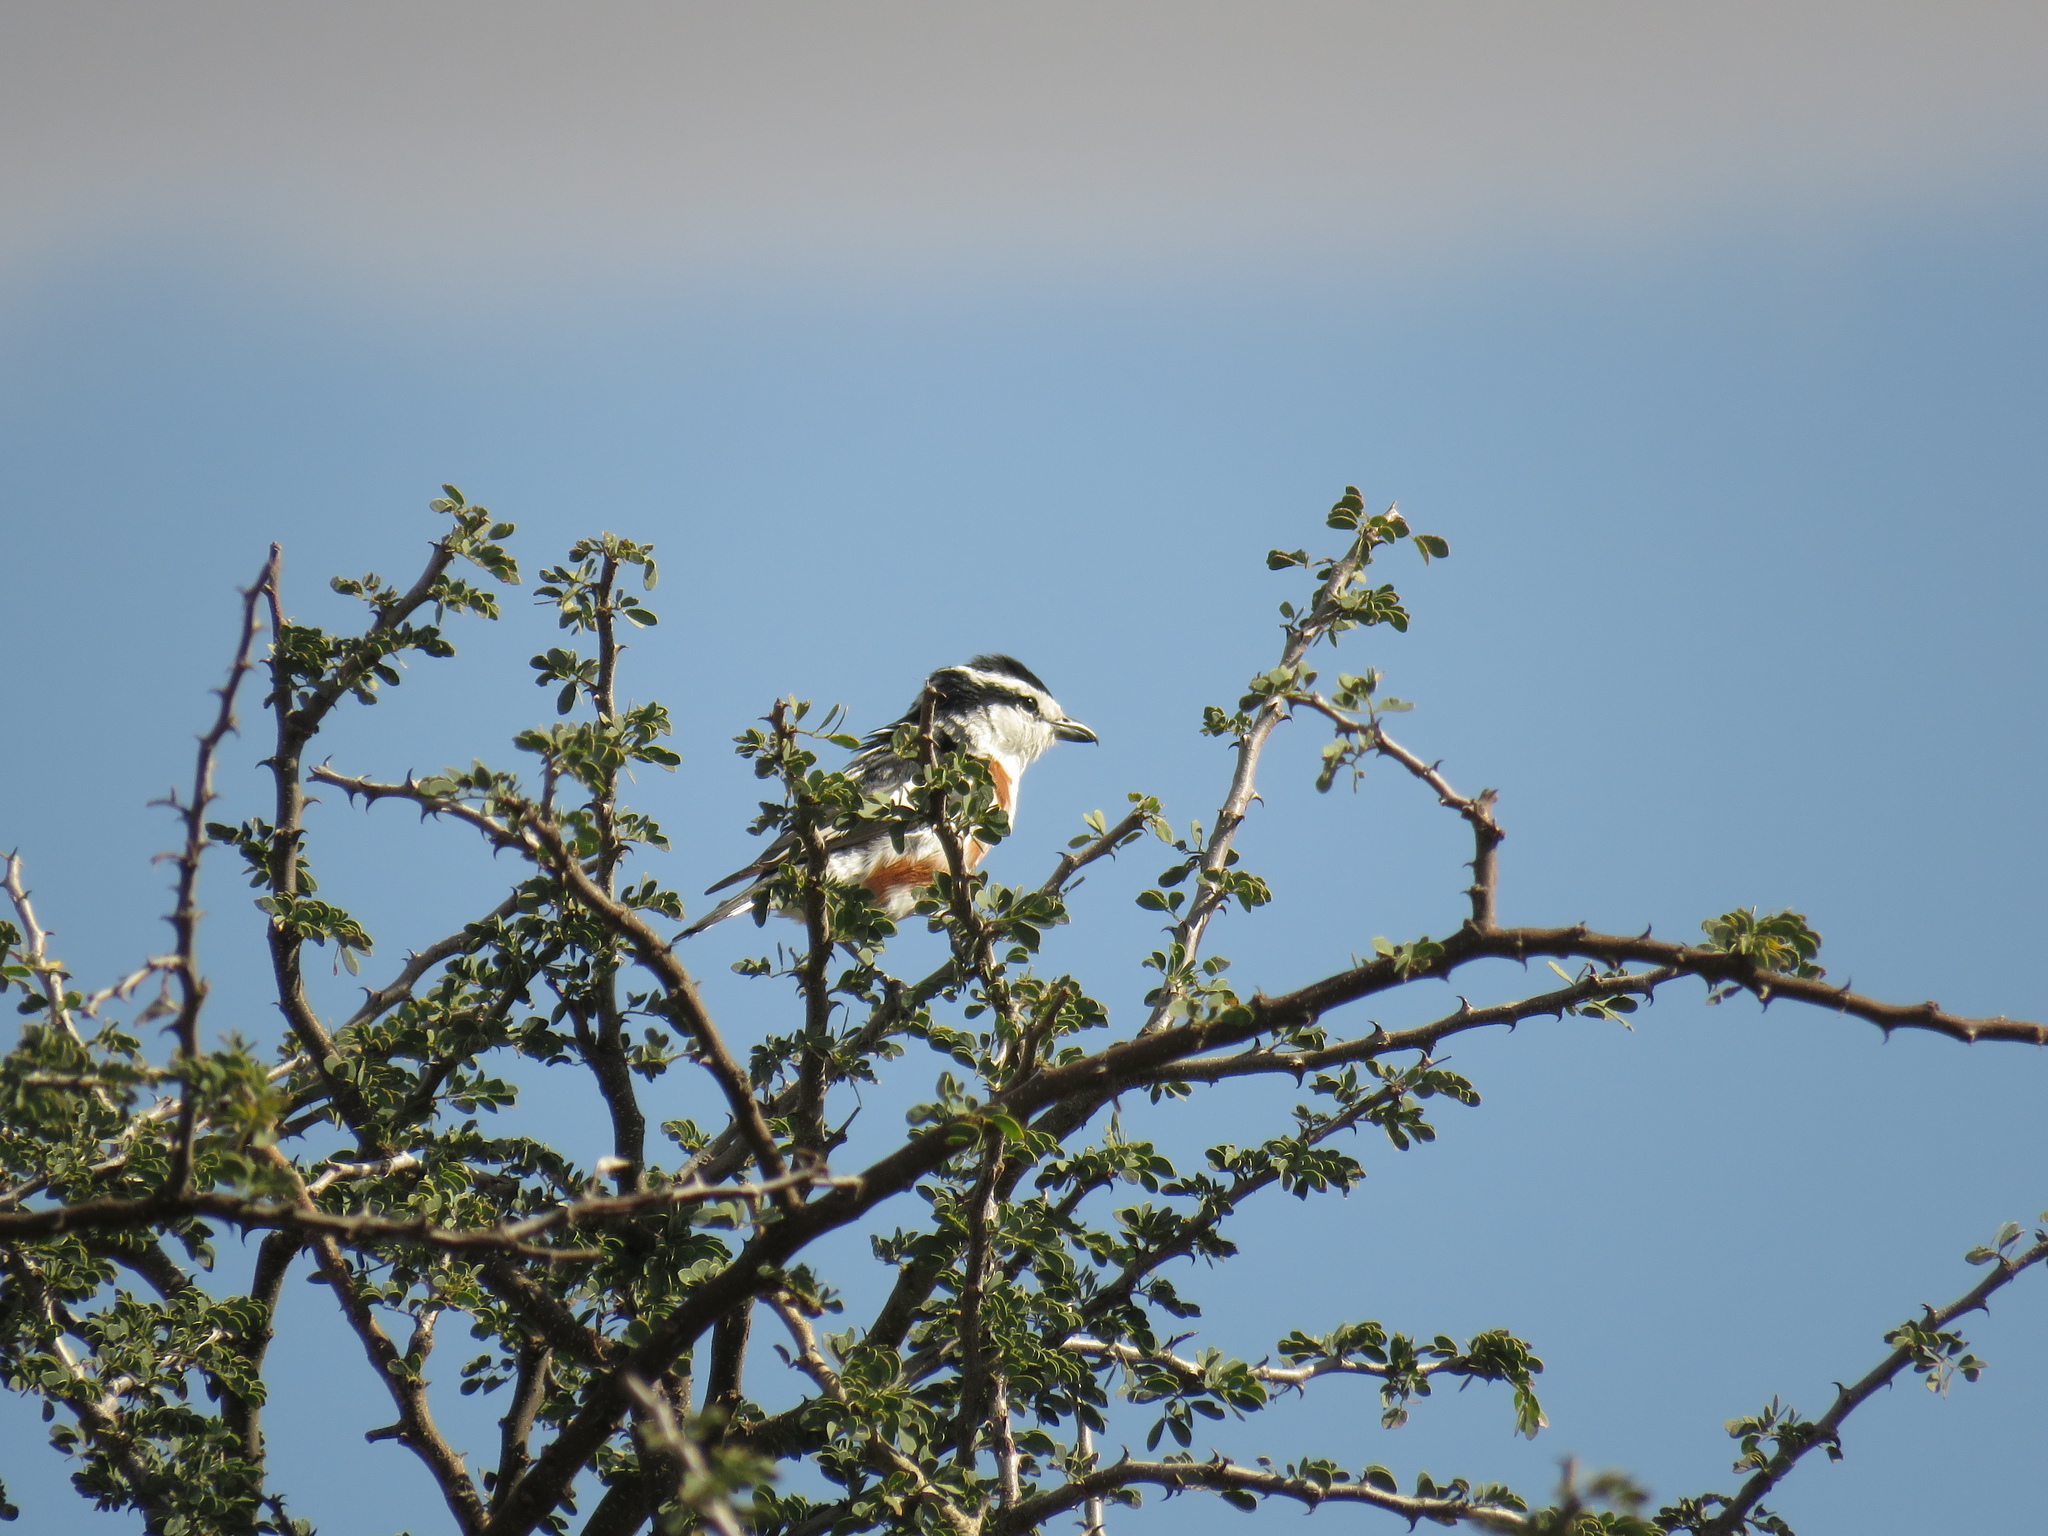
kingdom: Animalia
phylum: Chordata
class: Aves
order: Passeriformes
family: Malaconotidae
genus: Nilaus
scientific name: Nilaus afer
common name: Brubru
